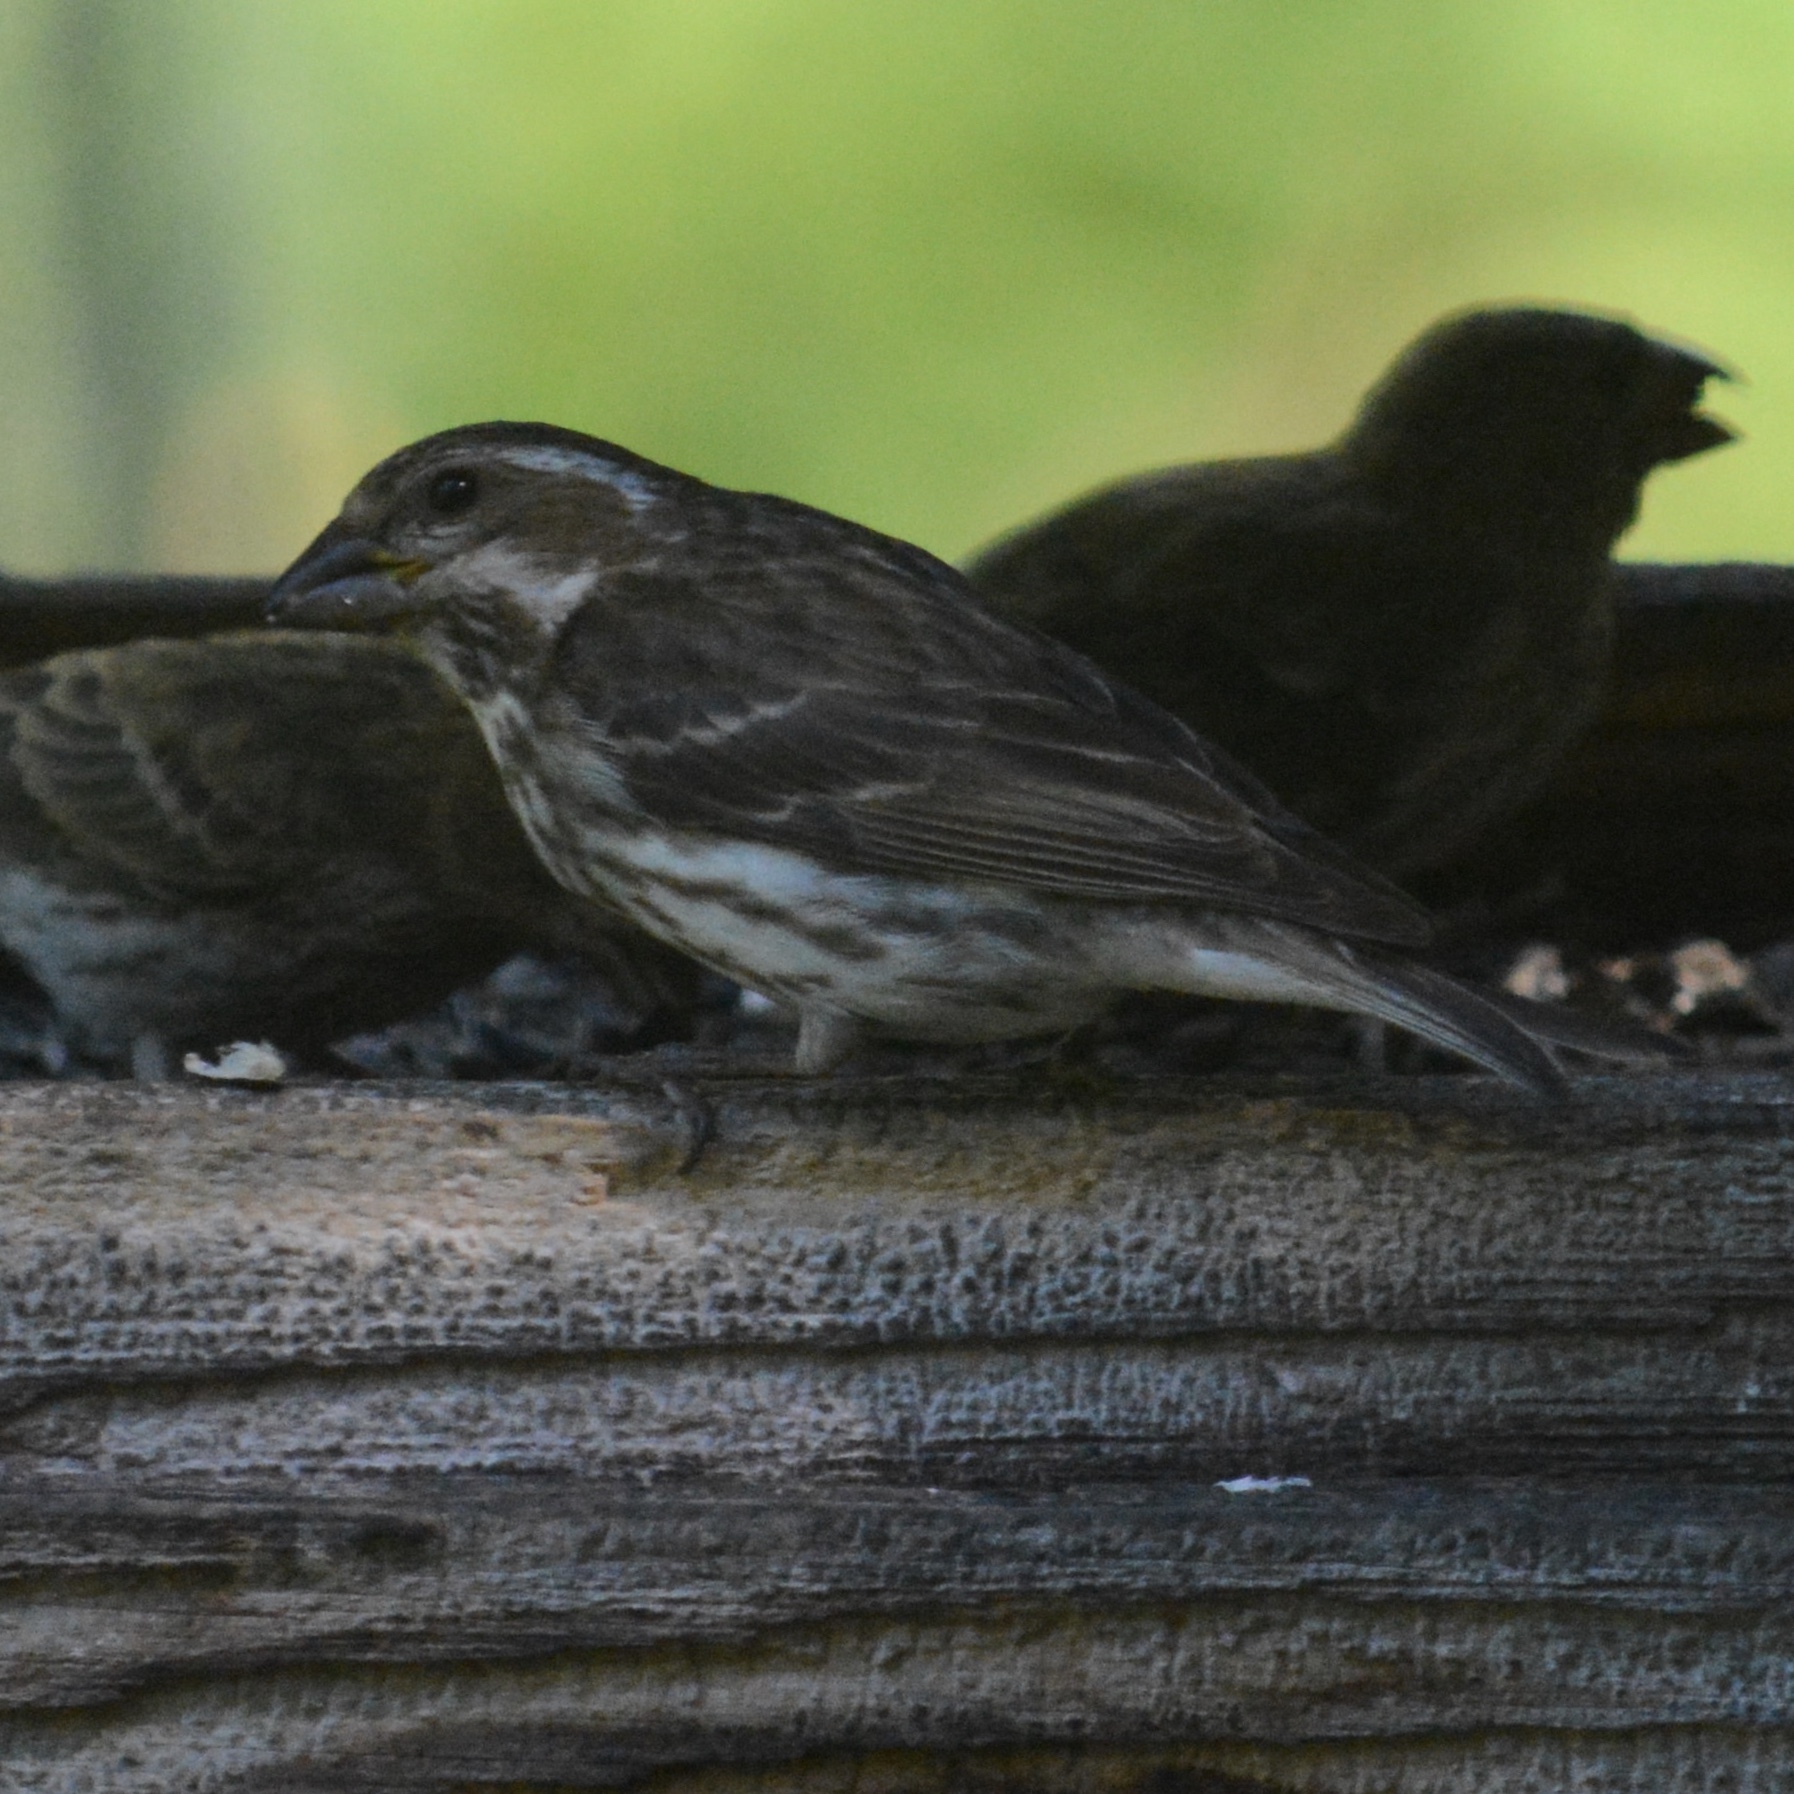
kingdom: Animalia
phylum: Chordata
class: Aves
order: Passeriformes
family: Fringillidae
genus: Haemorhous
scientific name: Haemorhous purpureus
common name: Purple finch
